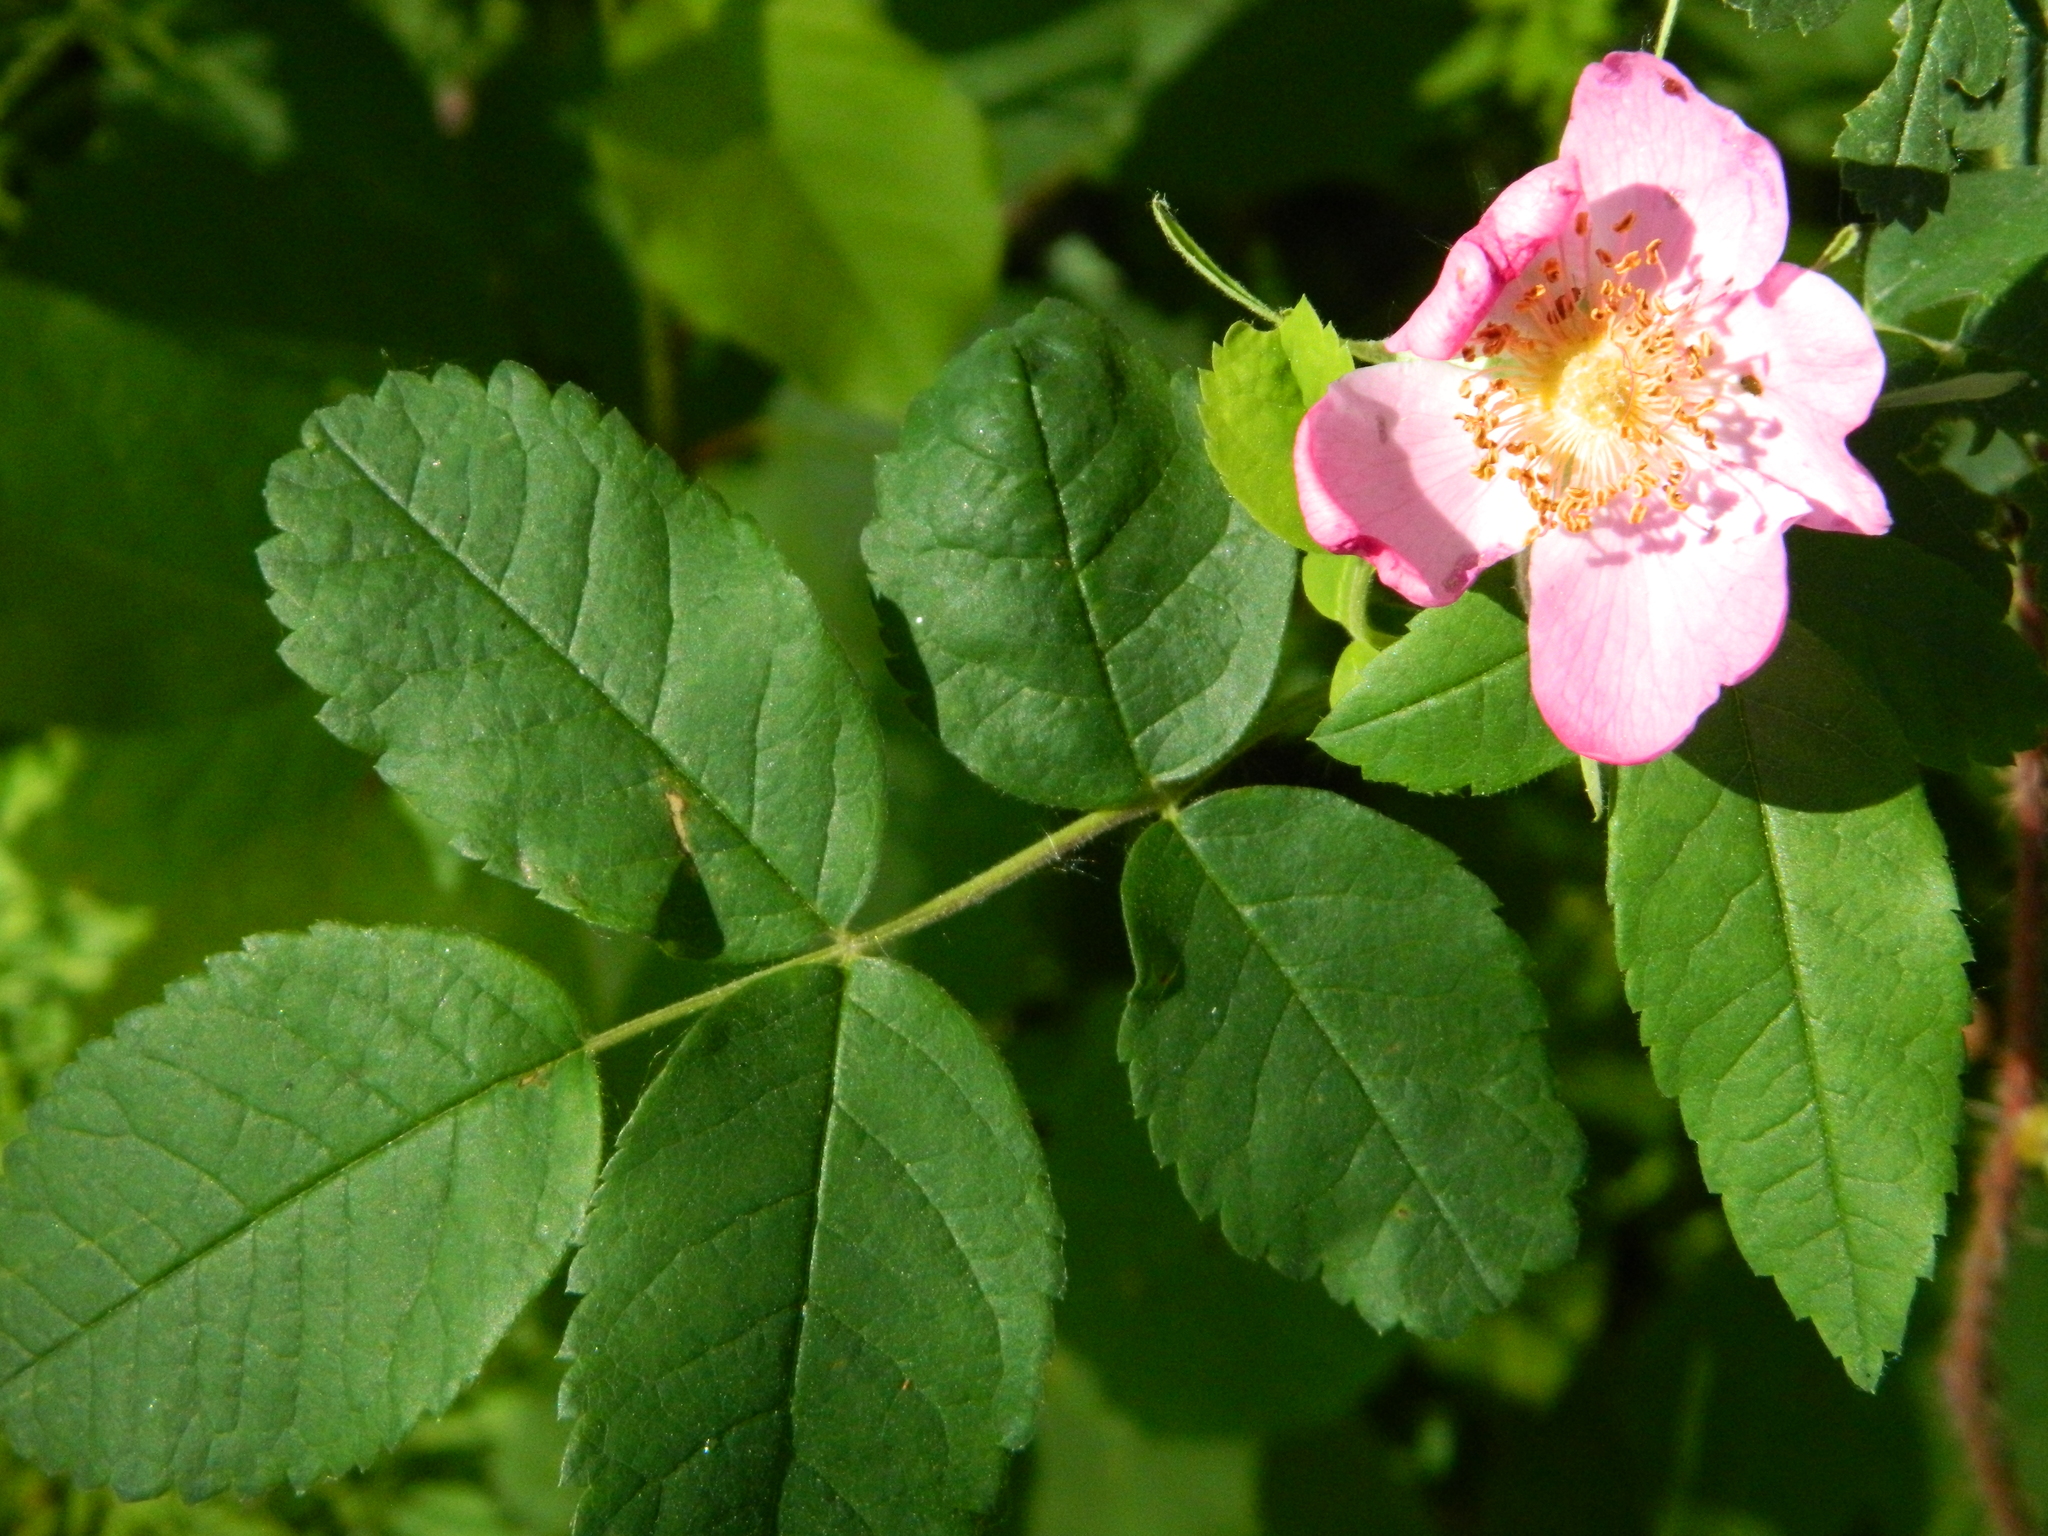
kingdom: Plantae
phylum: Tracheophyta
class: Magnoliopsida
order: Rosales
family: Rosaceae
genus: Rosa
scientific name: Rosa acicularis
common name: Prickly rose
